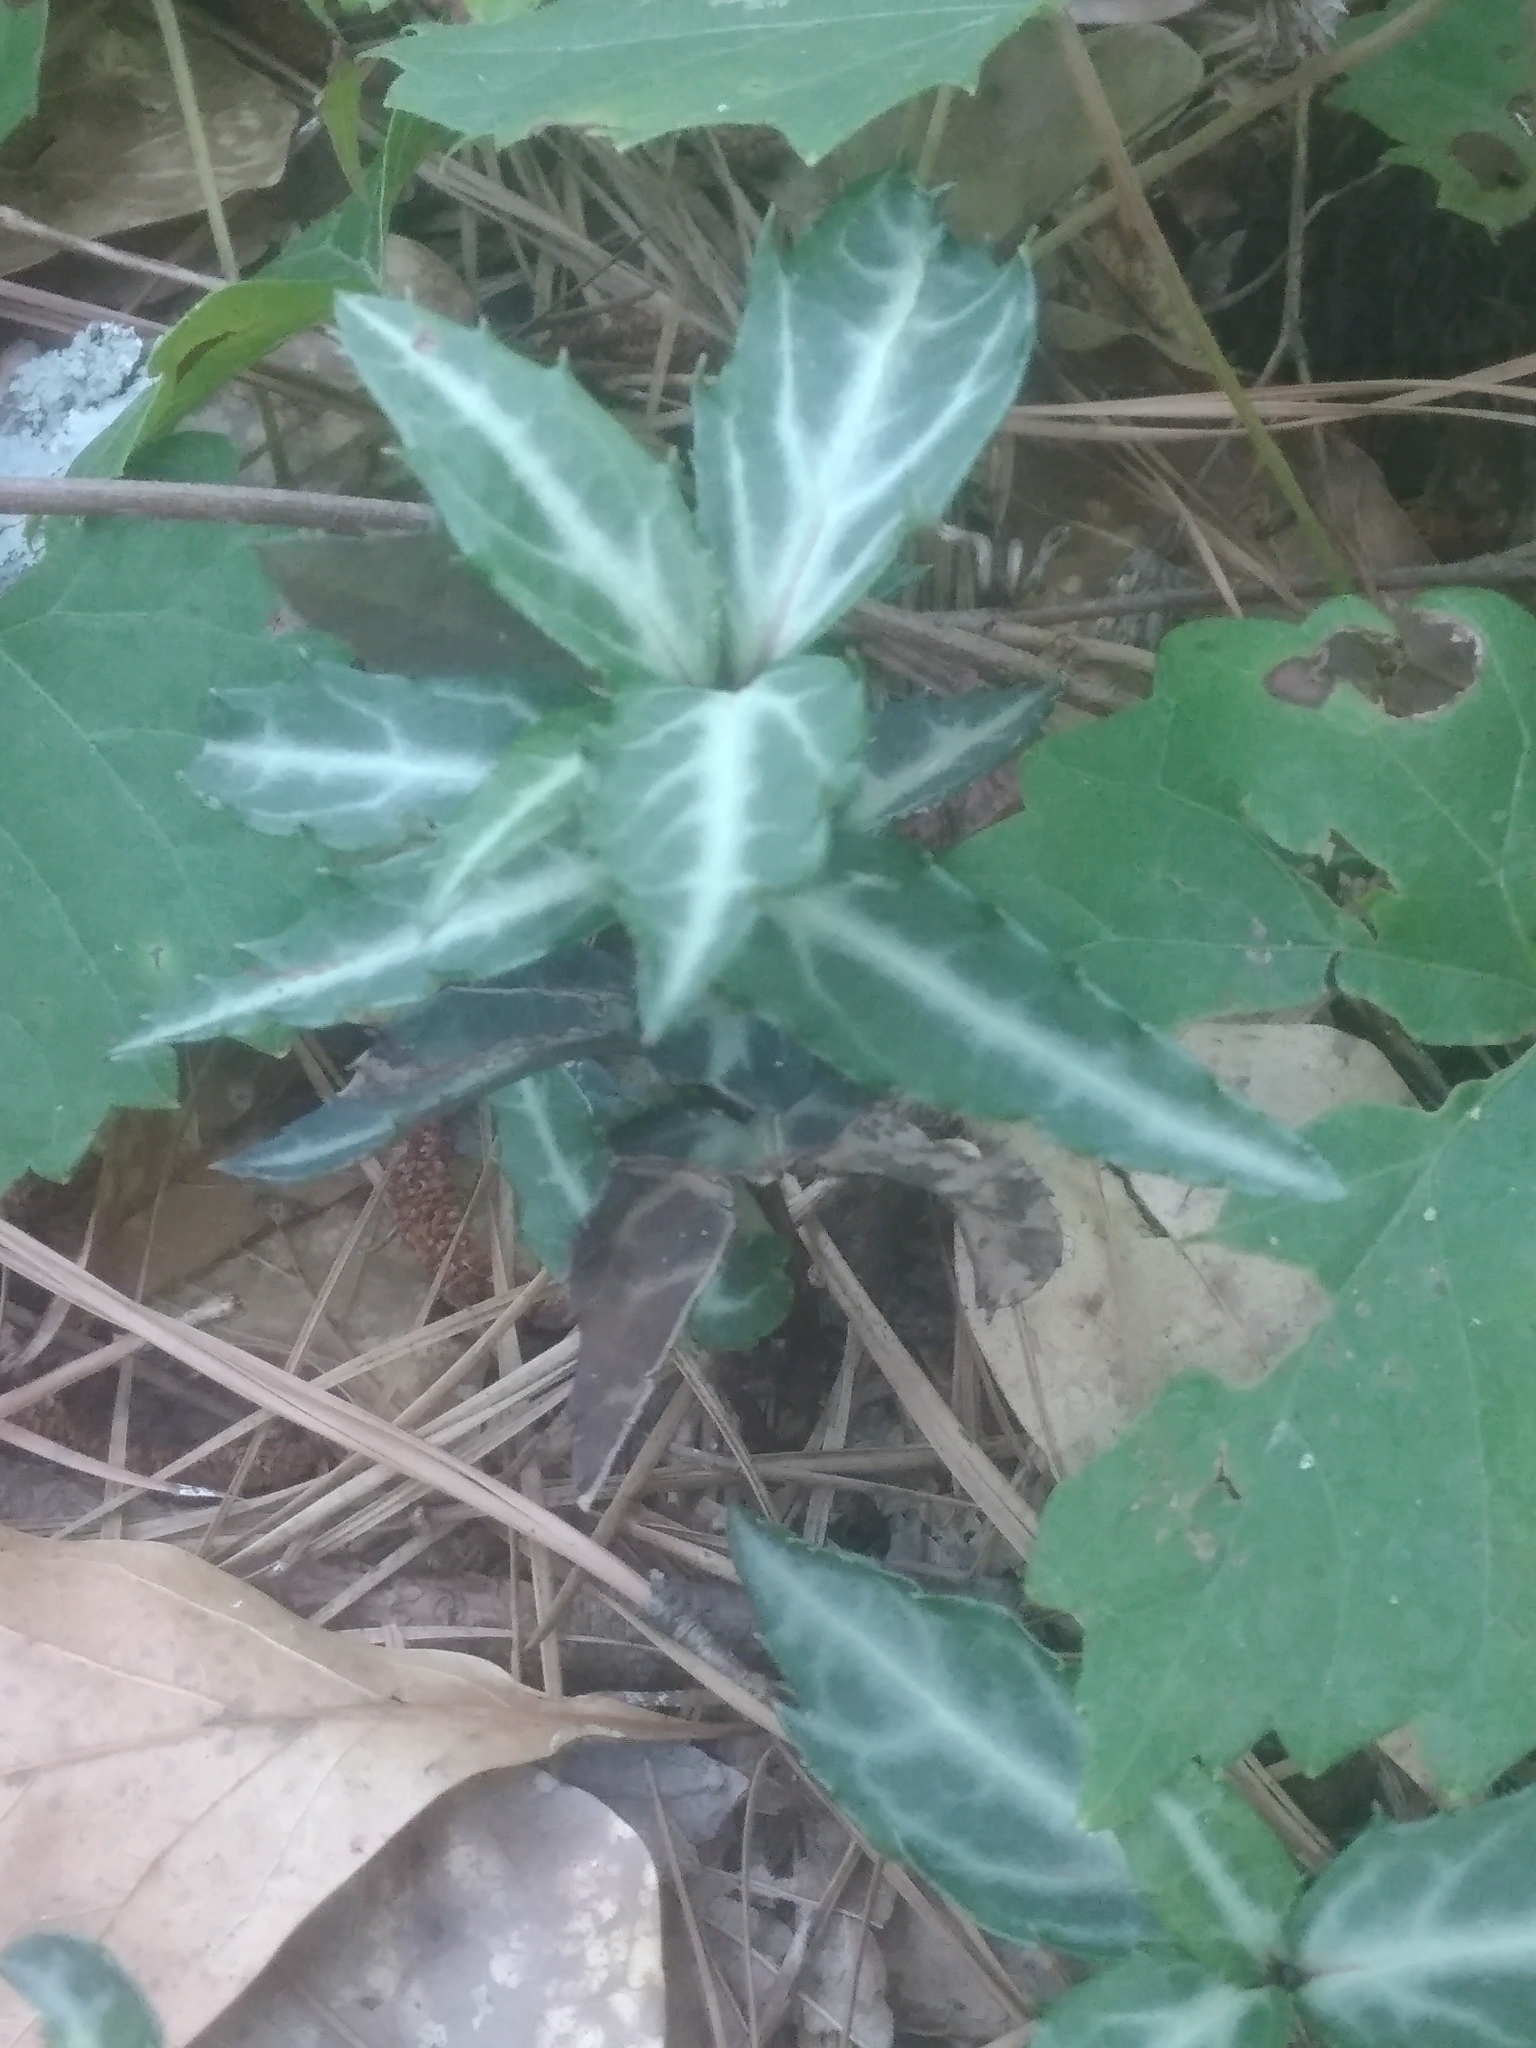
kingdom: Plantae
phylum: Tracheophyta
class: Magnoliopsida
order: Ericales
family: Ericaceae
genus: Chimaphila
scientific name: Chimaphila maculata
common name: Spotted pipsissewa
